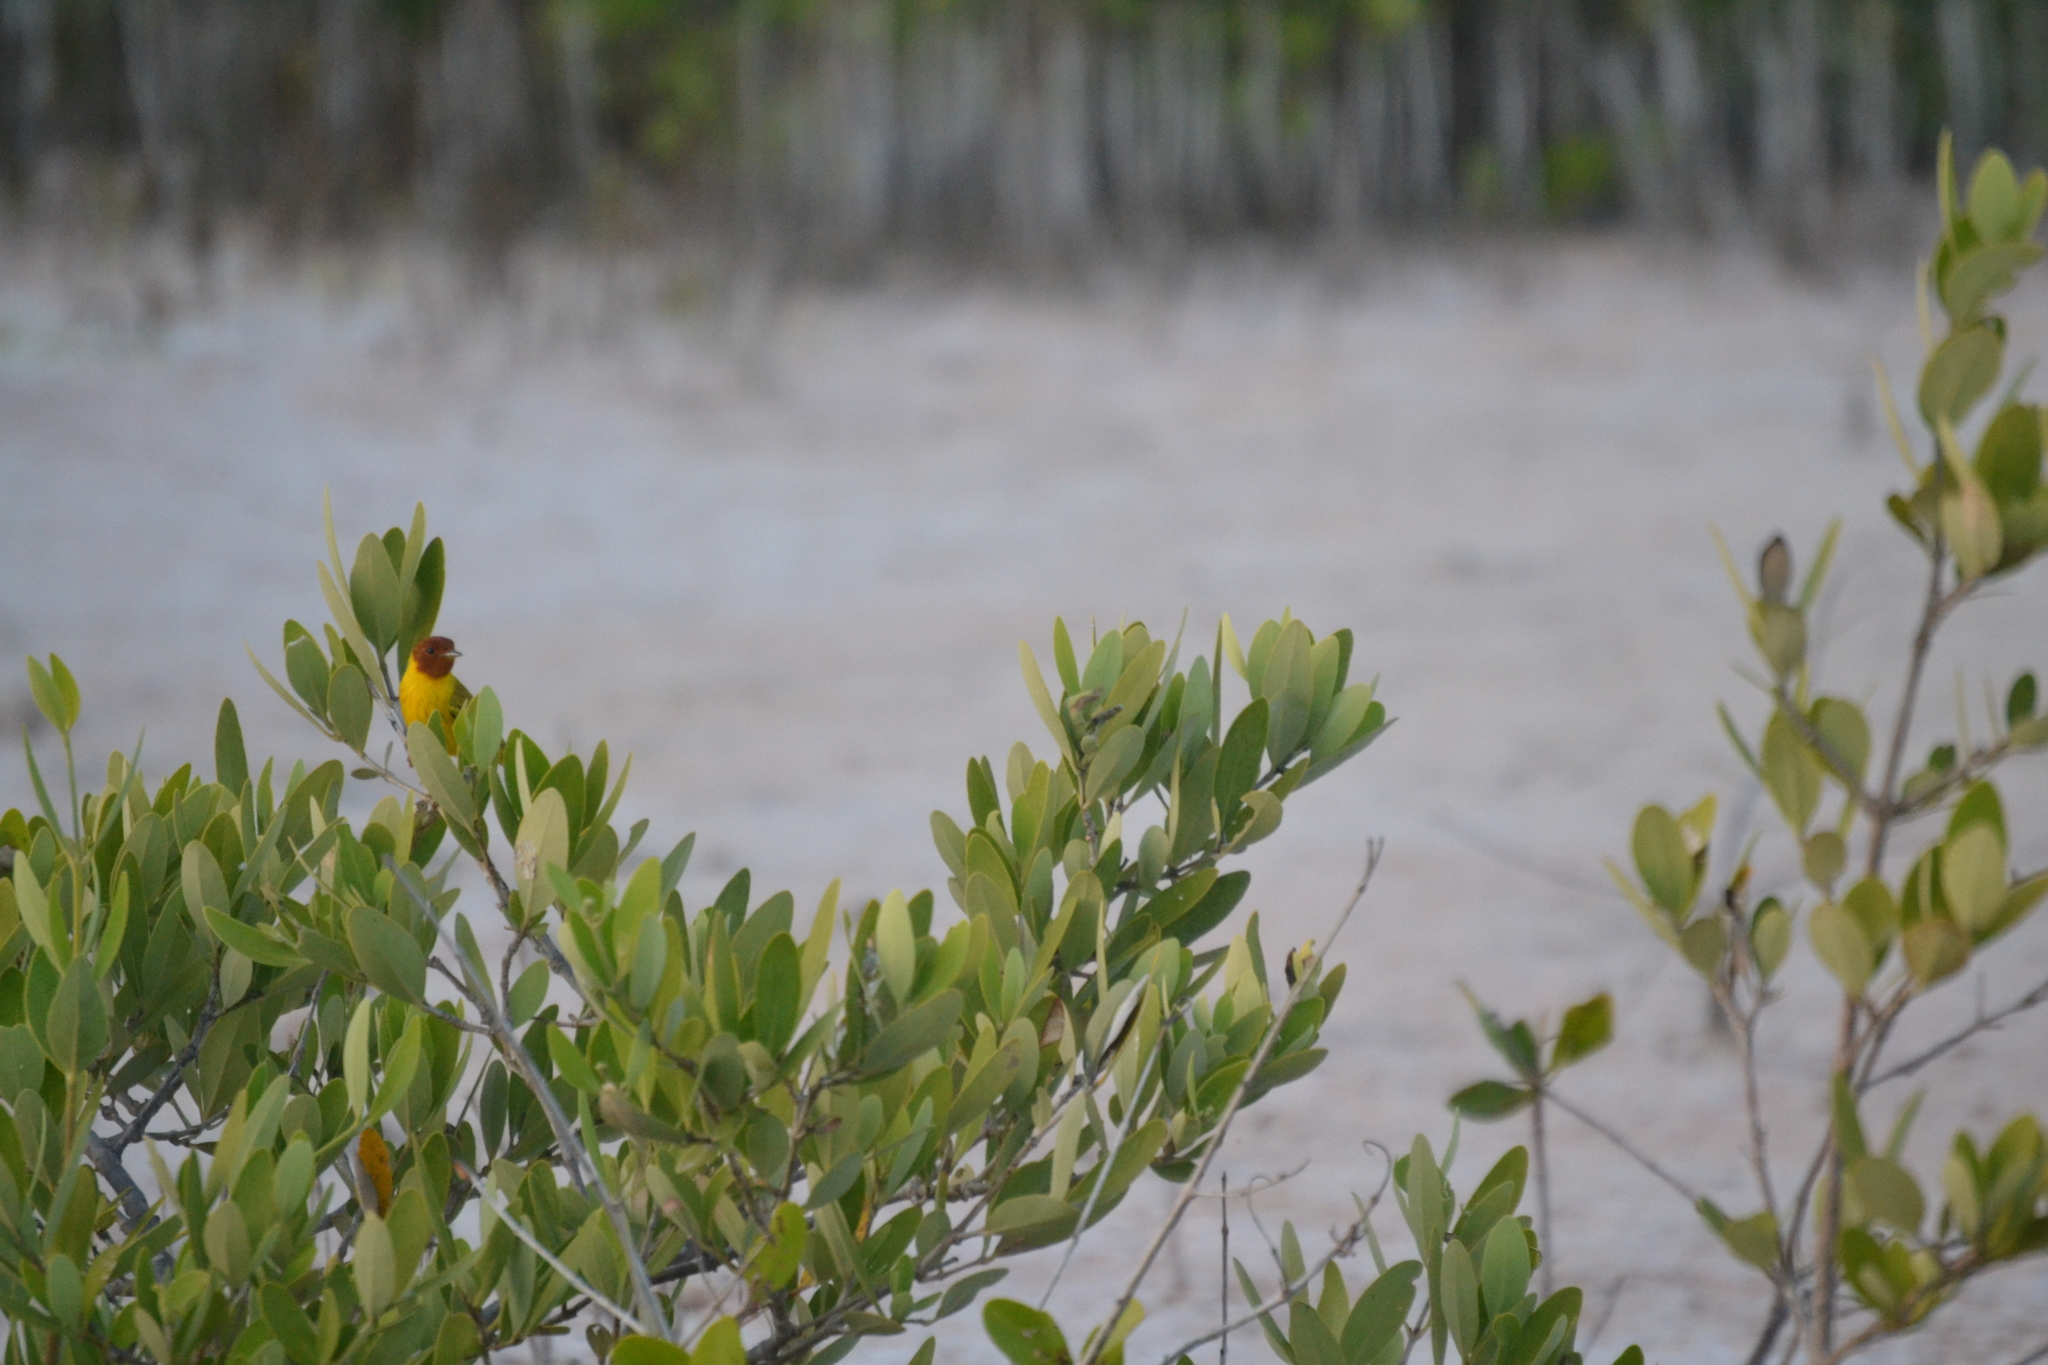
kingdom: Animalia
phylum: Chordata
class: Aves
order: Passeriformes
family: Parulidae
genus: Setophaga
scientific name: Setophaga petechia
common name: Yellow warbler
